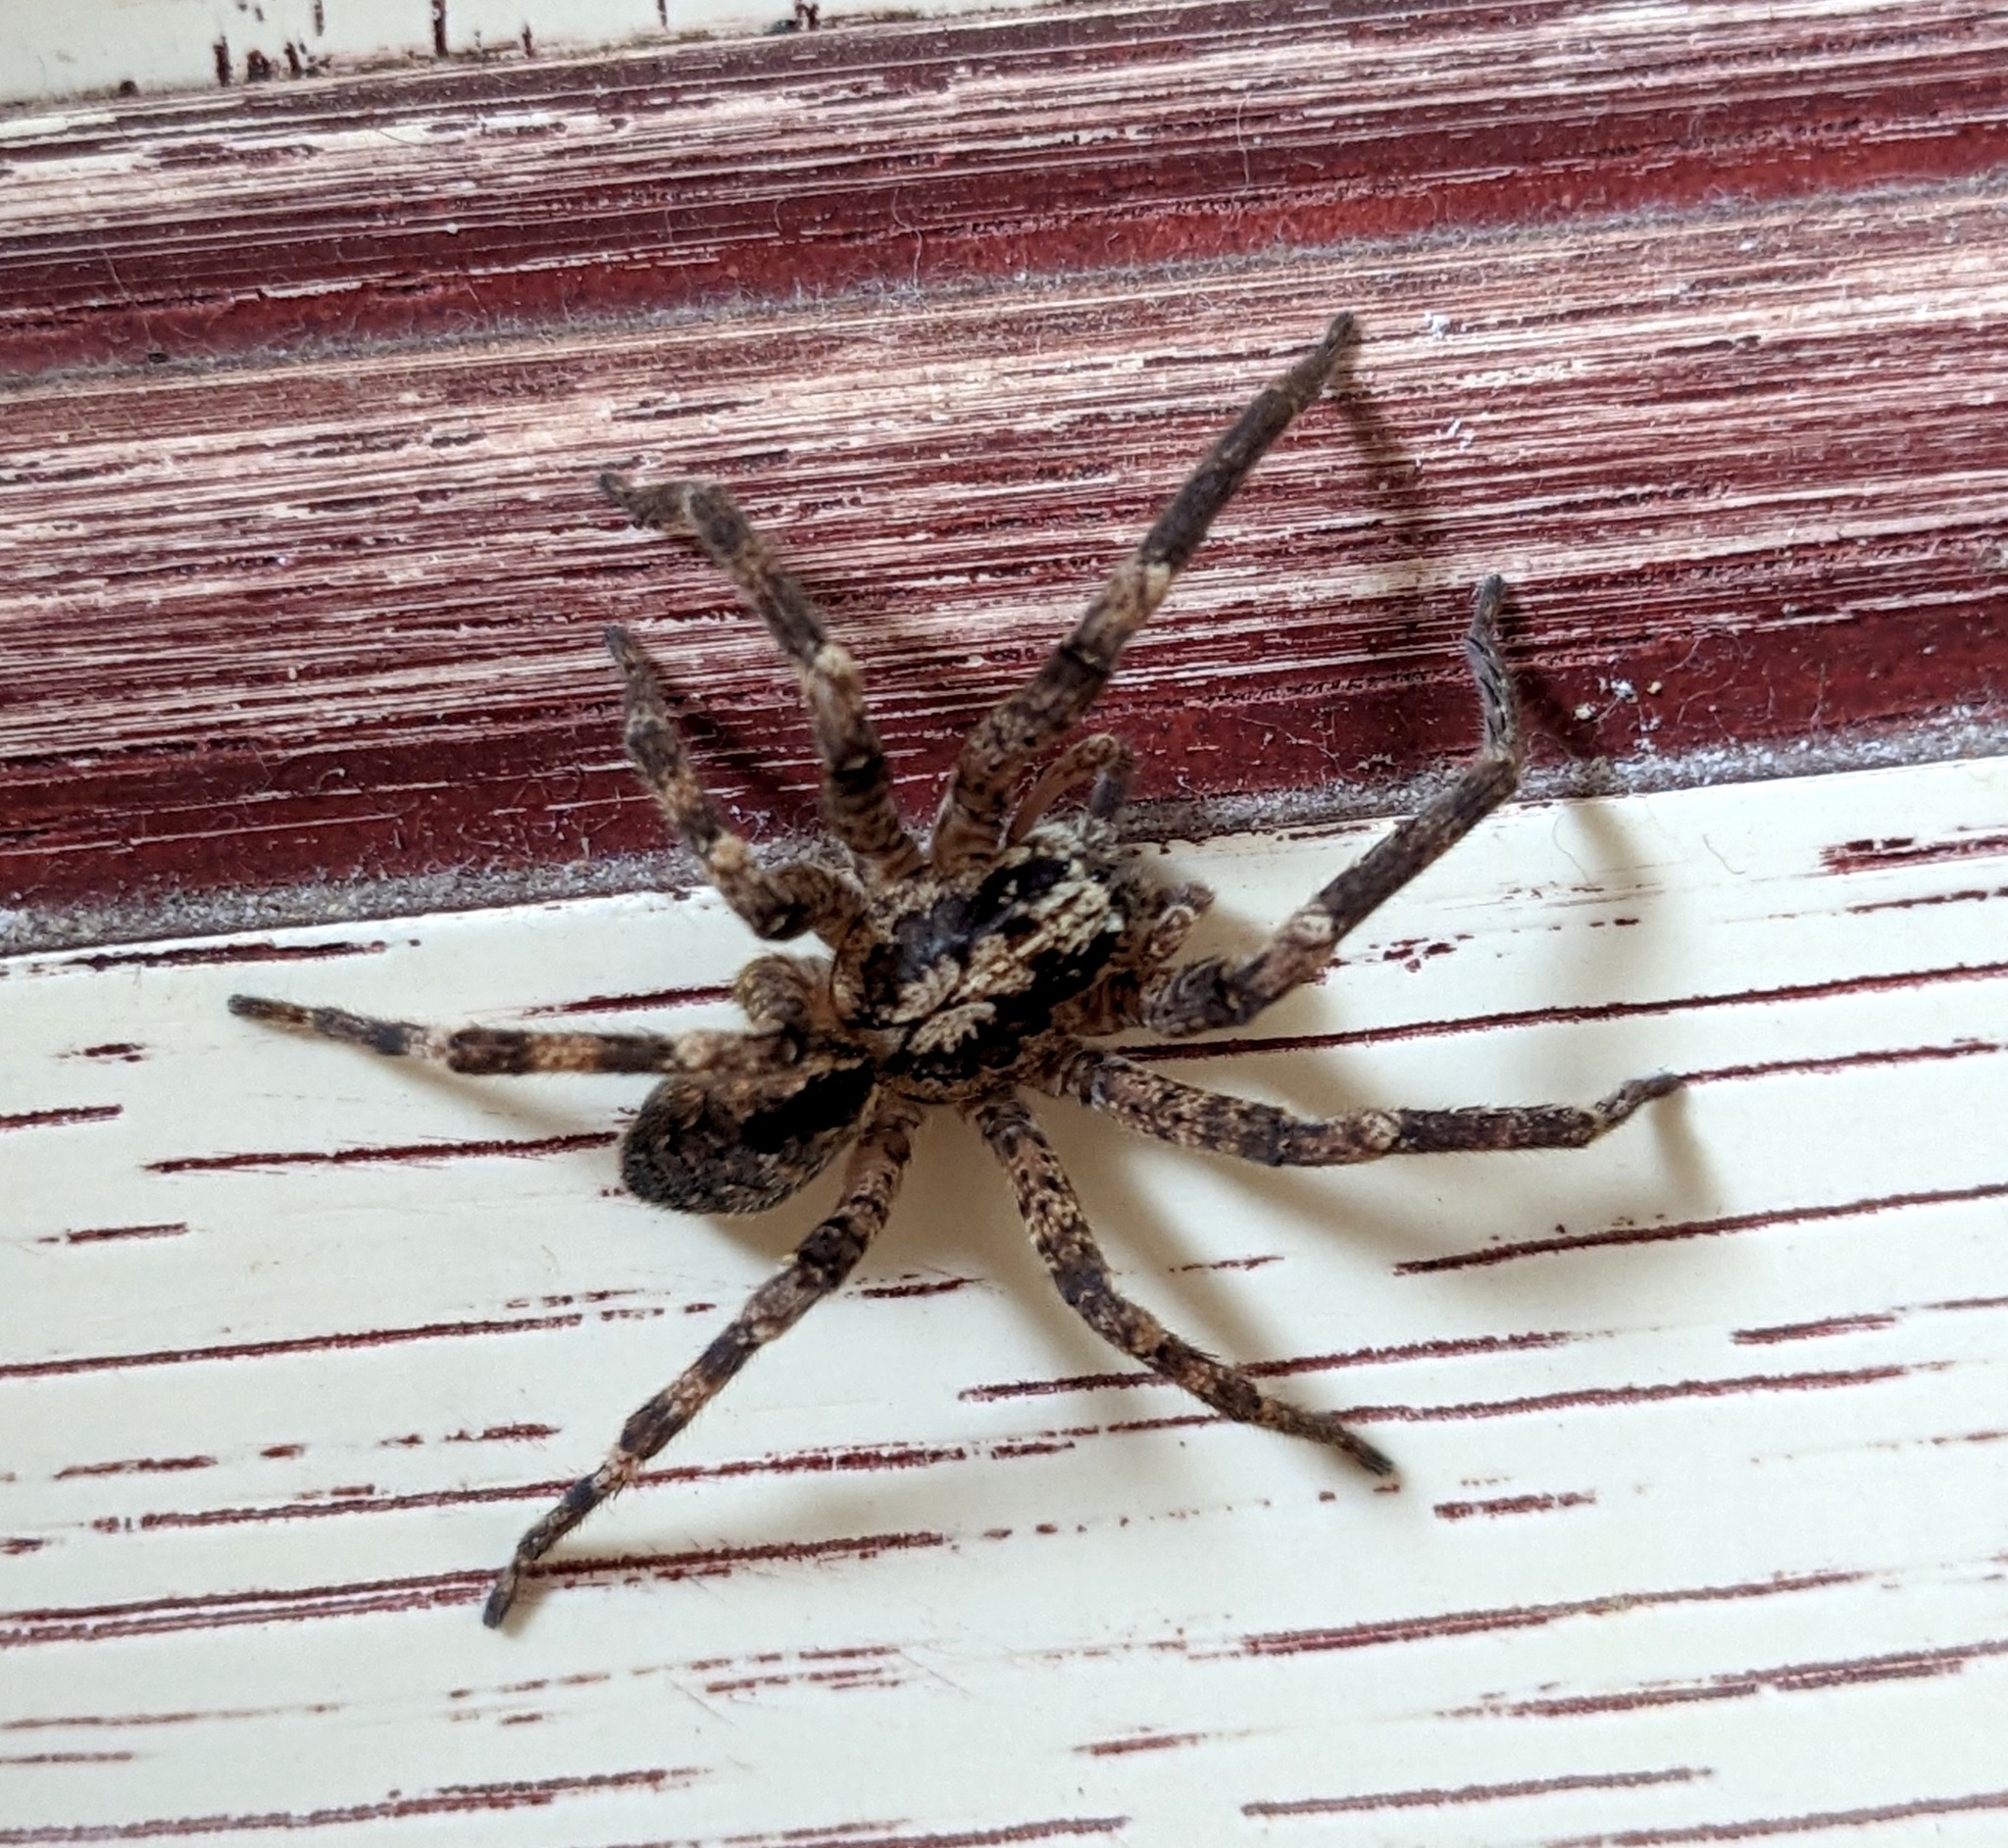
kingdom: Animalia
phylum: Arthropoda
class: Arachnida
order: Araneae
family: Zoropsidae
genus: Zoropsis
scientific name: Zoropsis spinimana
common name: Zoropsid spider
